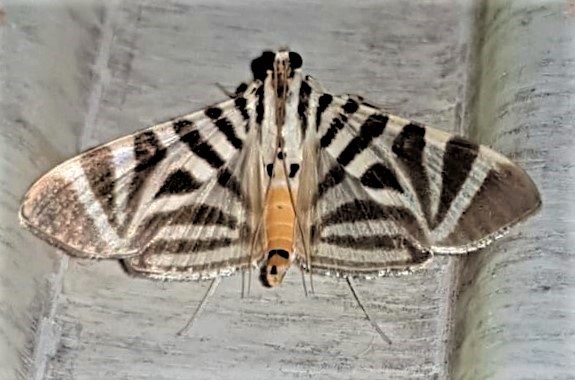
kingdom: Animalia
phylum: Arthropoda
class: Insecta
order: Lepidoptera
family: Crambidae
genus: Zebronia
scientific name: Zebronia Spilomela perspicata
